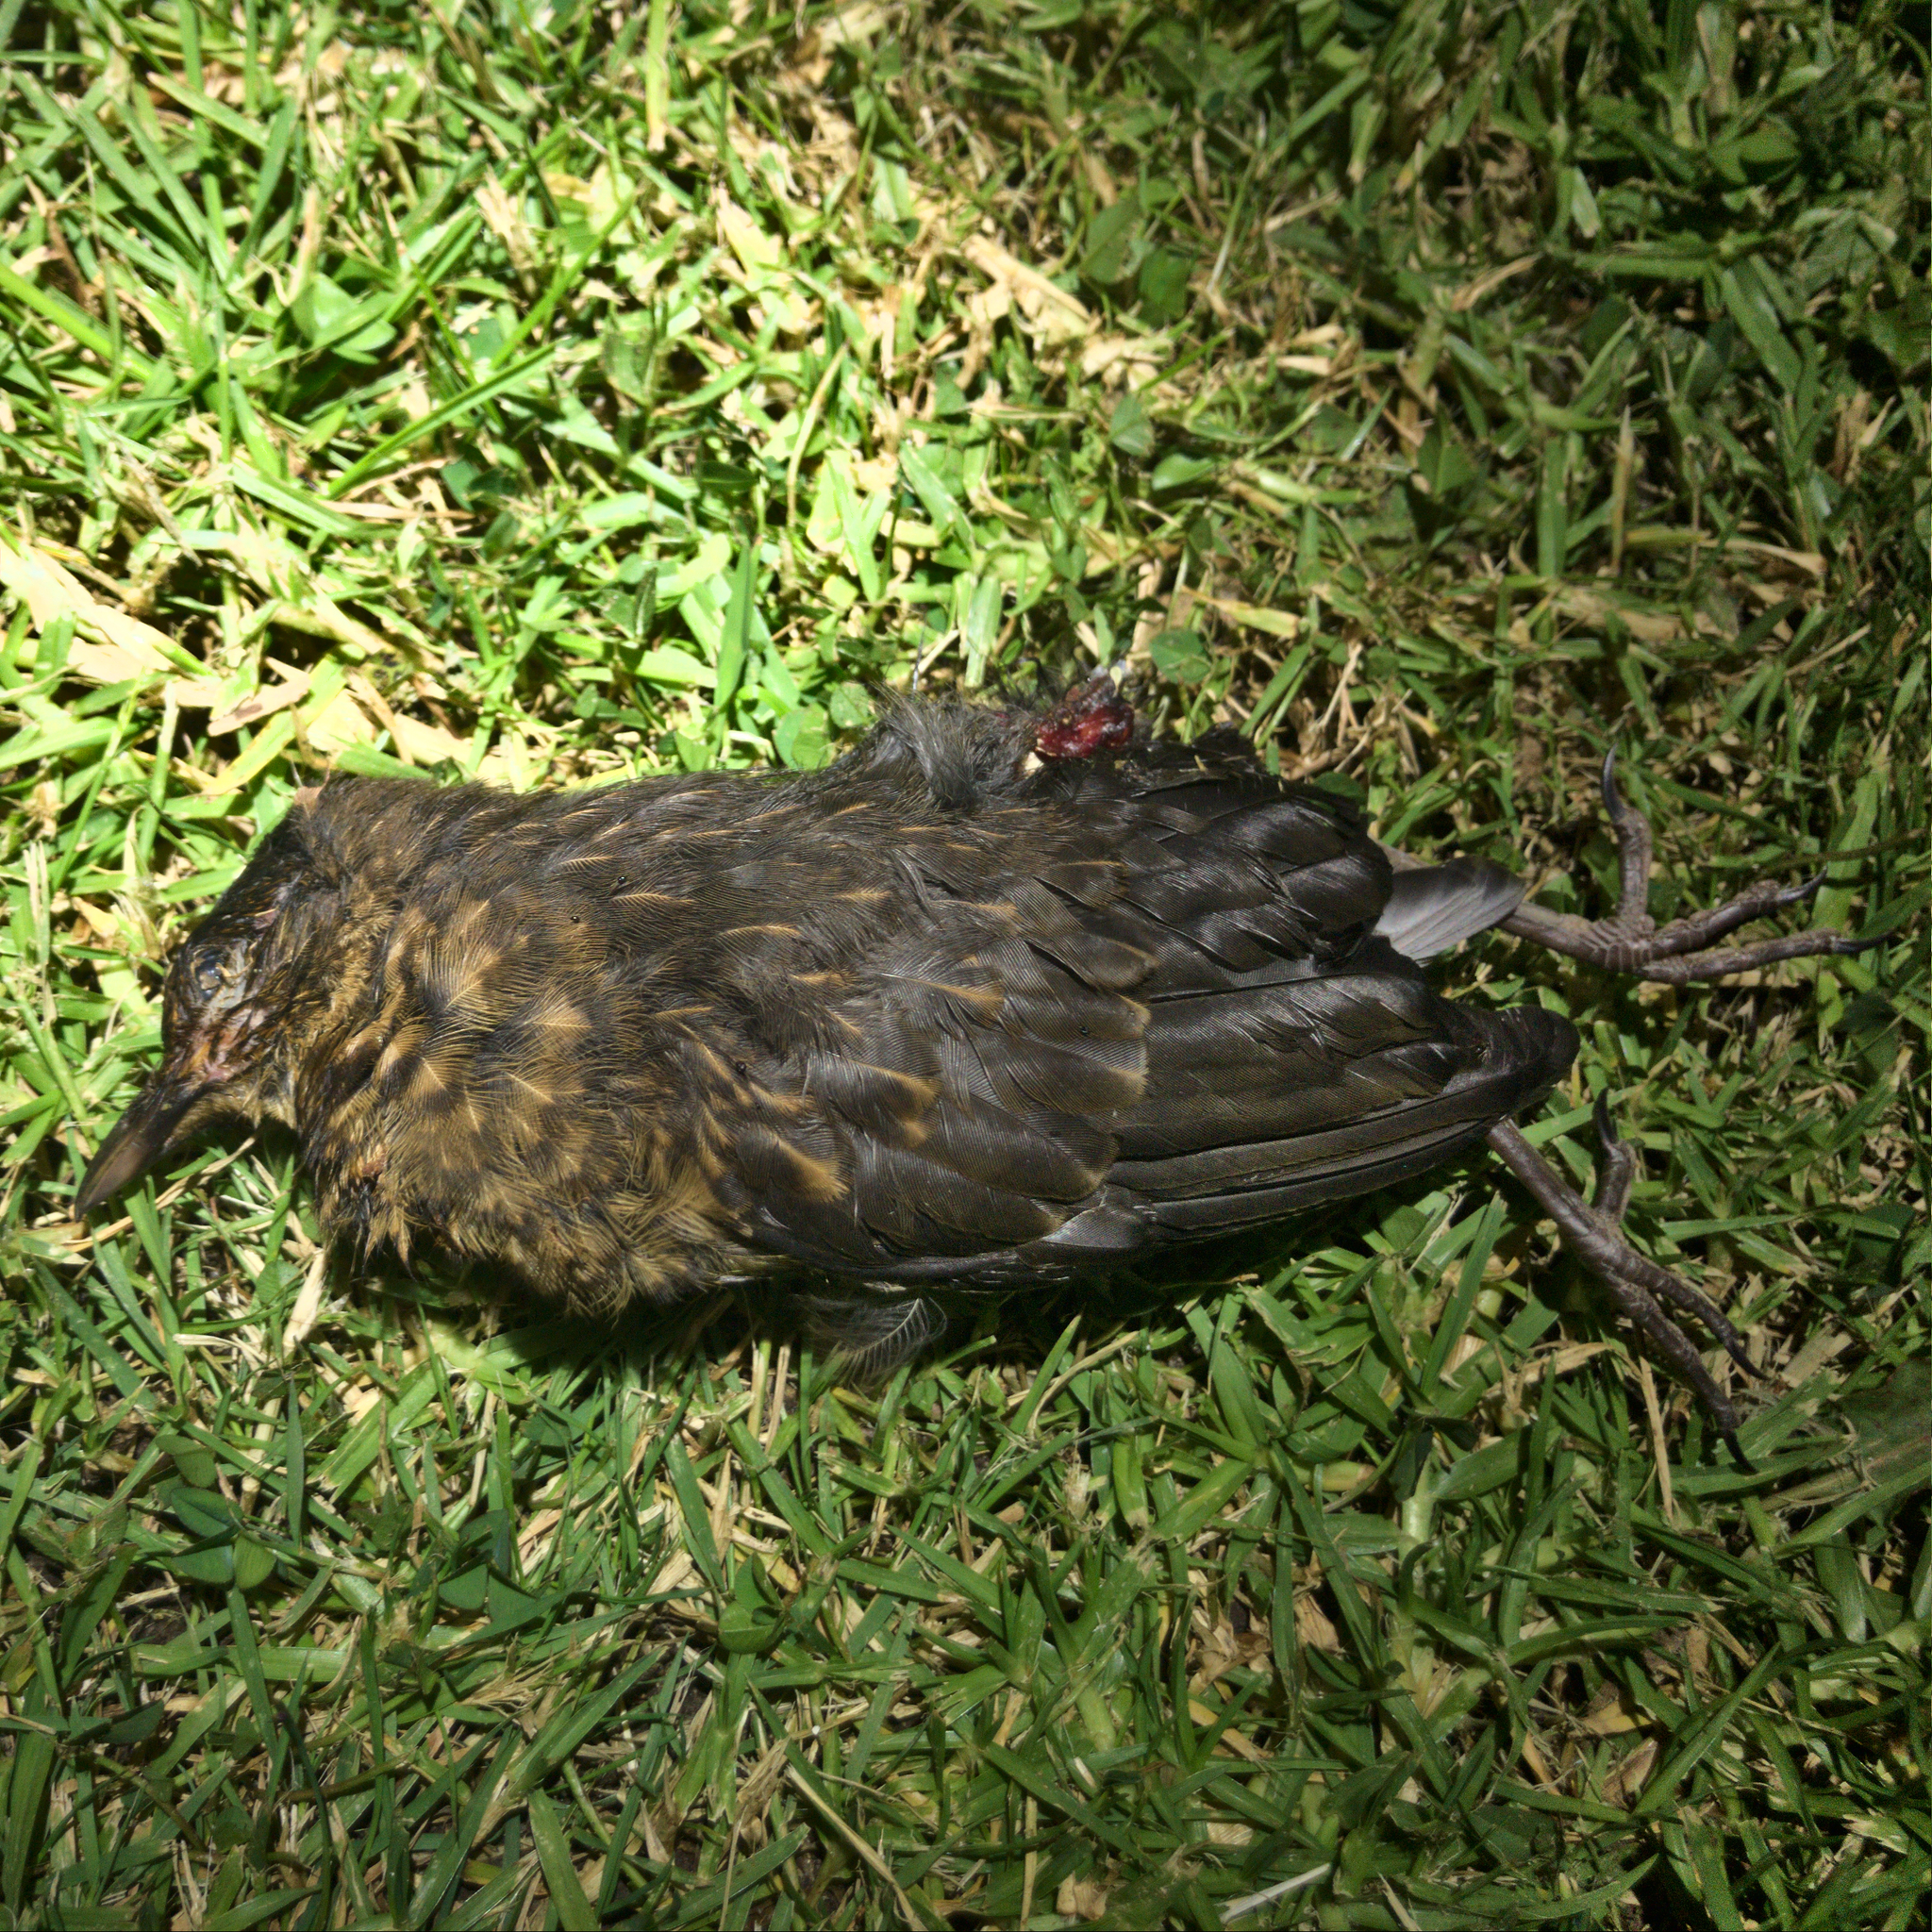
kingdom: Animalia
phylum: Chordata
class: Aves
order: Passeriformes
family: Turdidae
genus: Turdus
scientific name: Turdus merula
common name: Common blackbird
